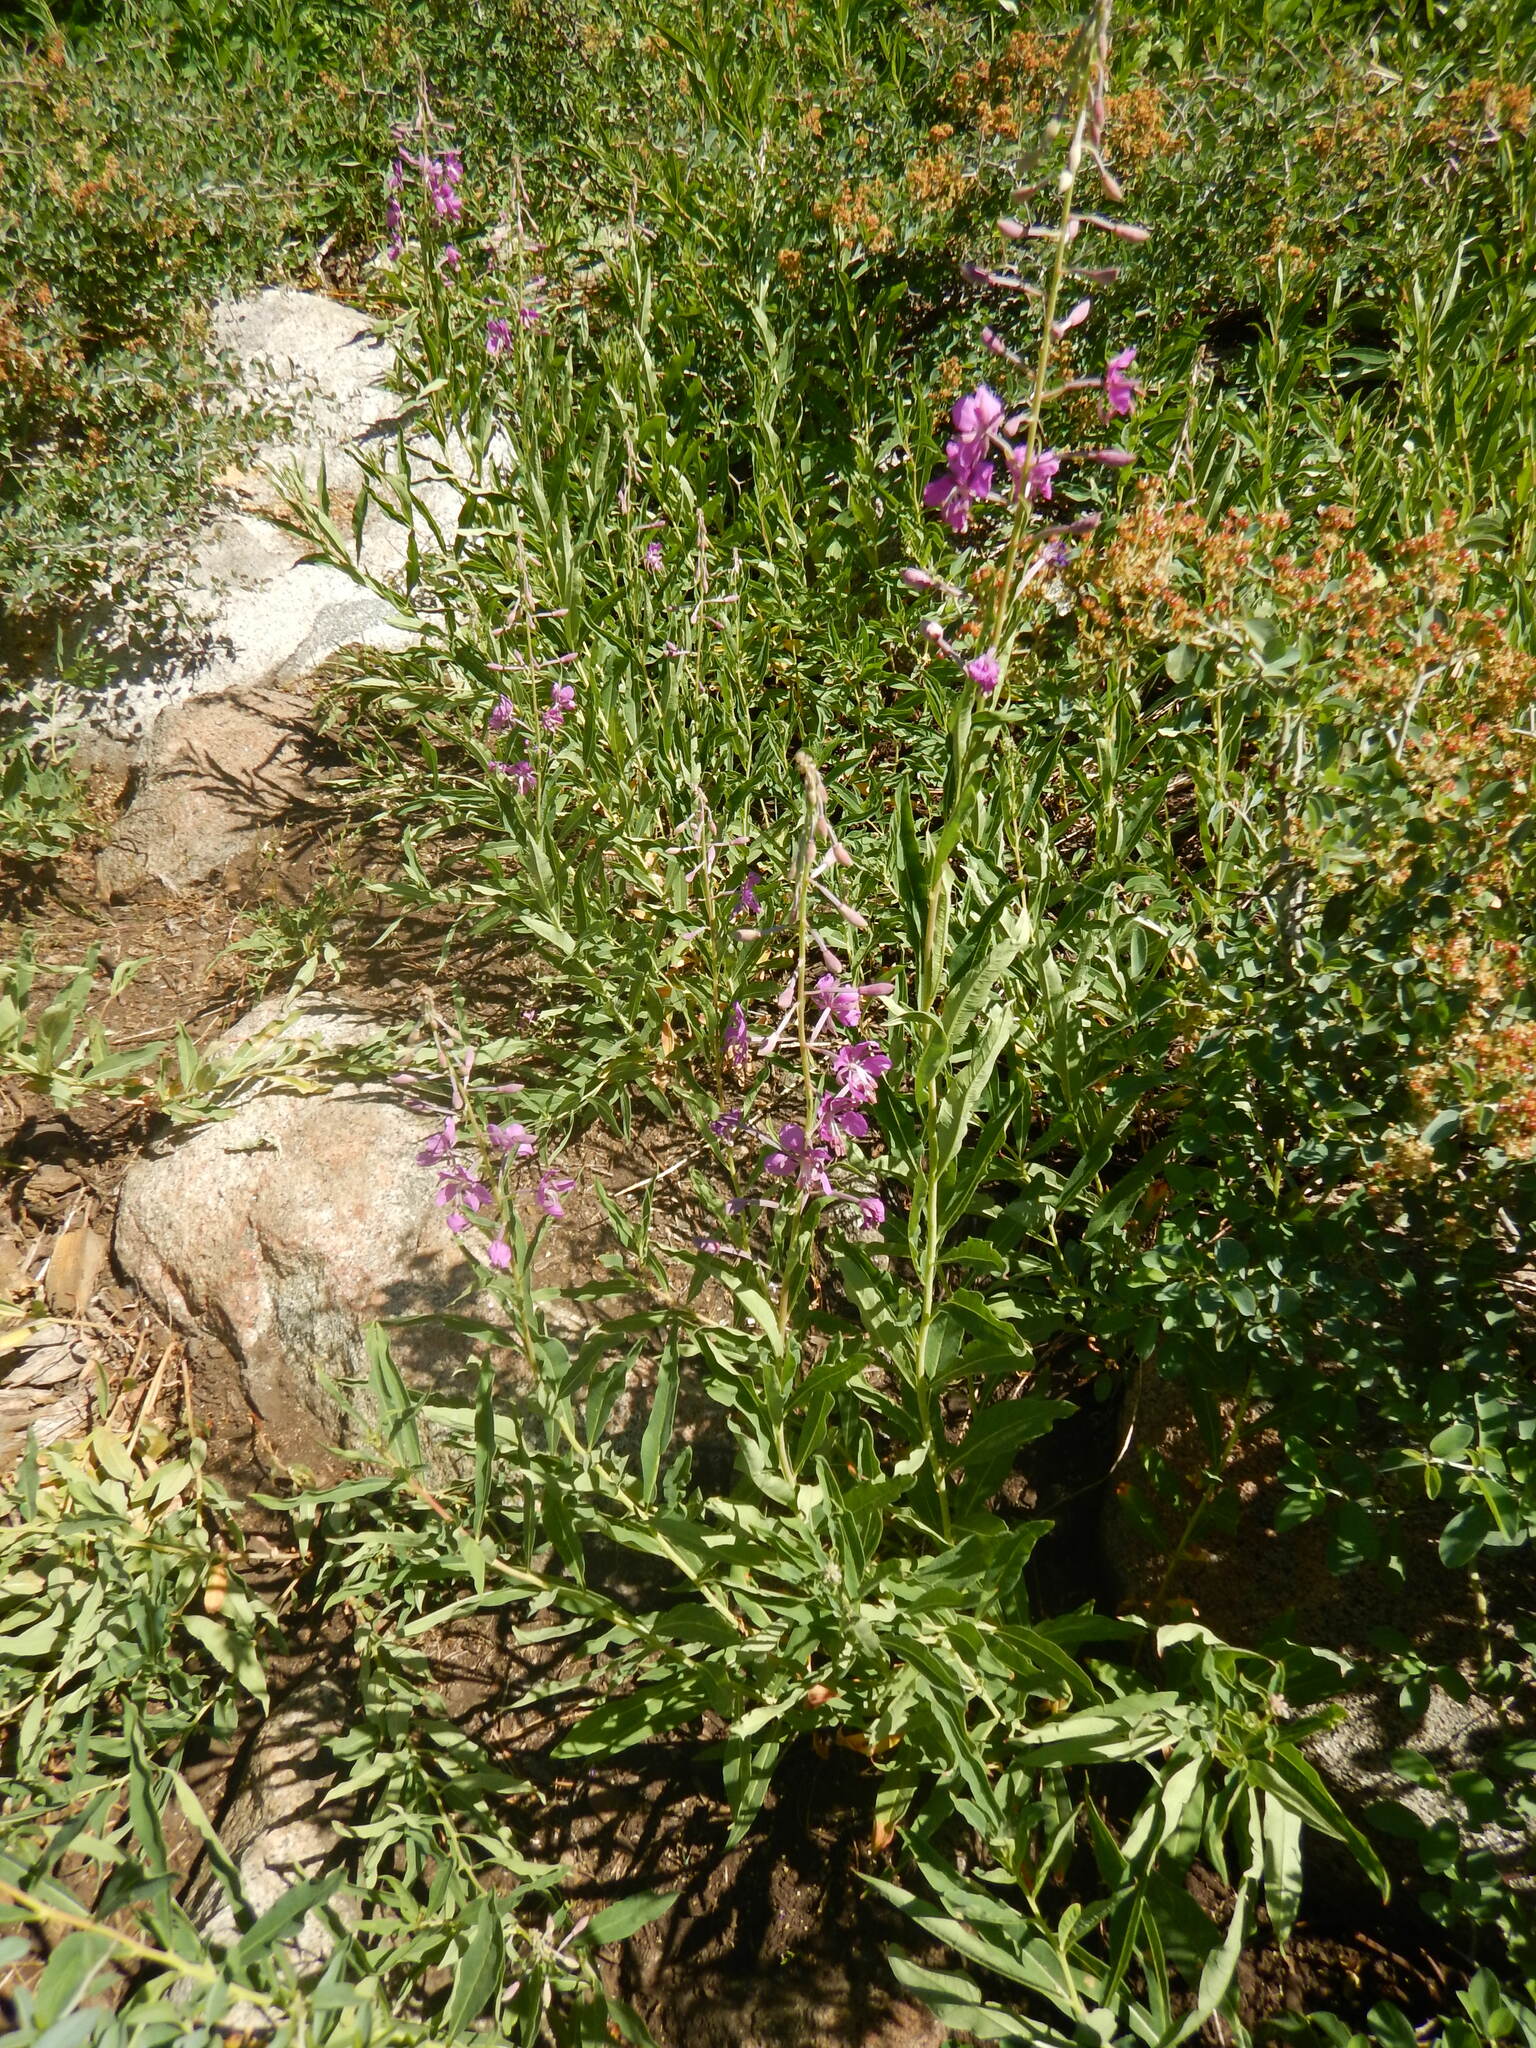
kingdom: Plantae
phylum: Tracheophyta
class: Magnoliopsida
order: Myrtales
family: Onagraceae
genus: Chamaenerion
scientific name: Chamaenerion angustifolium
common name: Fireweed
